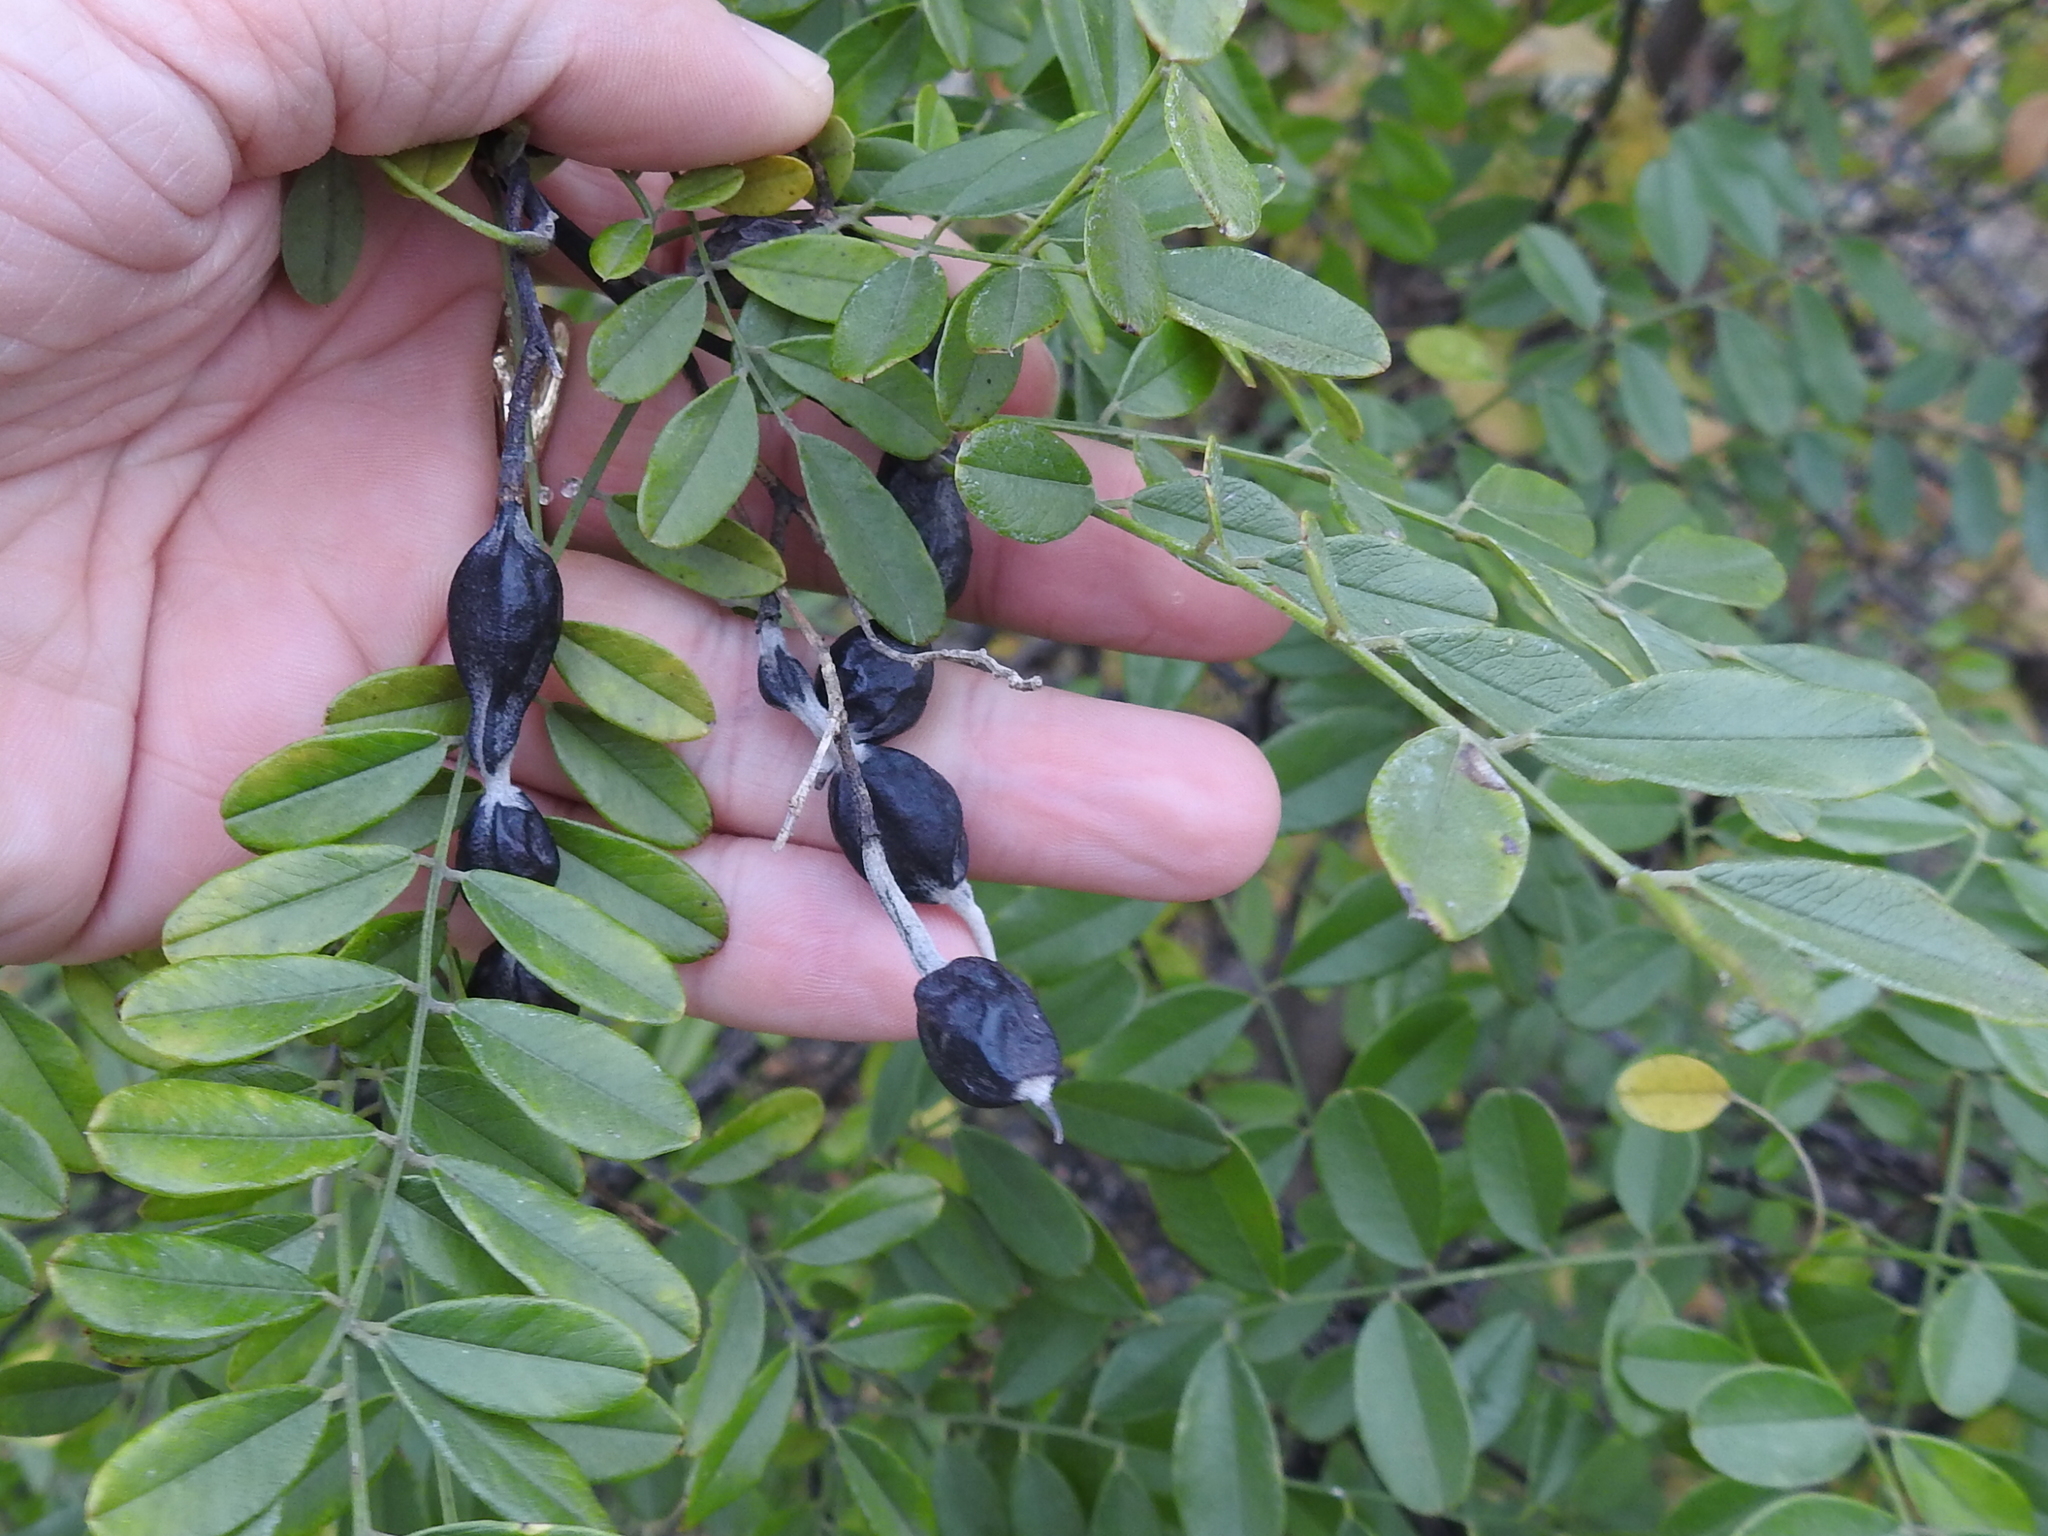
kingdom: Plantae
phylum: Tracheophyta
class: Magnoliopsida
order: Fabales
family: Fabaceae
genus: Styphnolobium
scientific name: Styphnolobium affine
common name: Texas sophora
